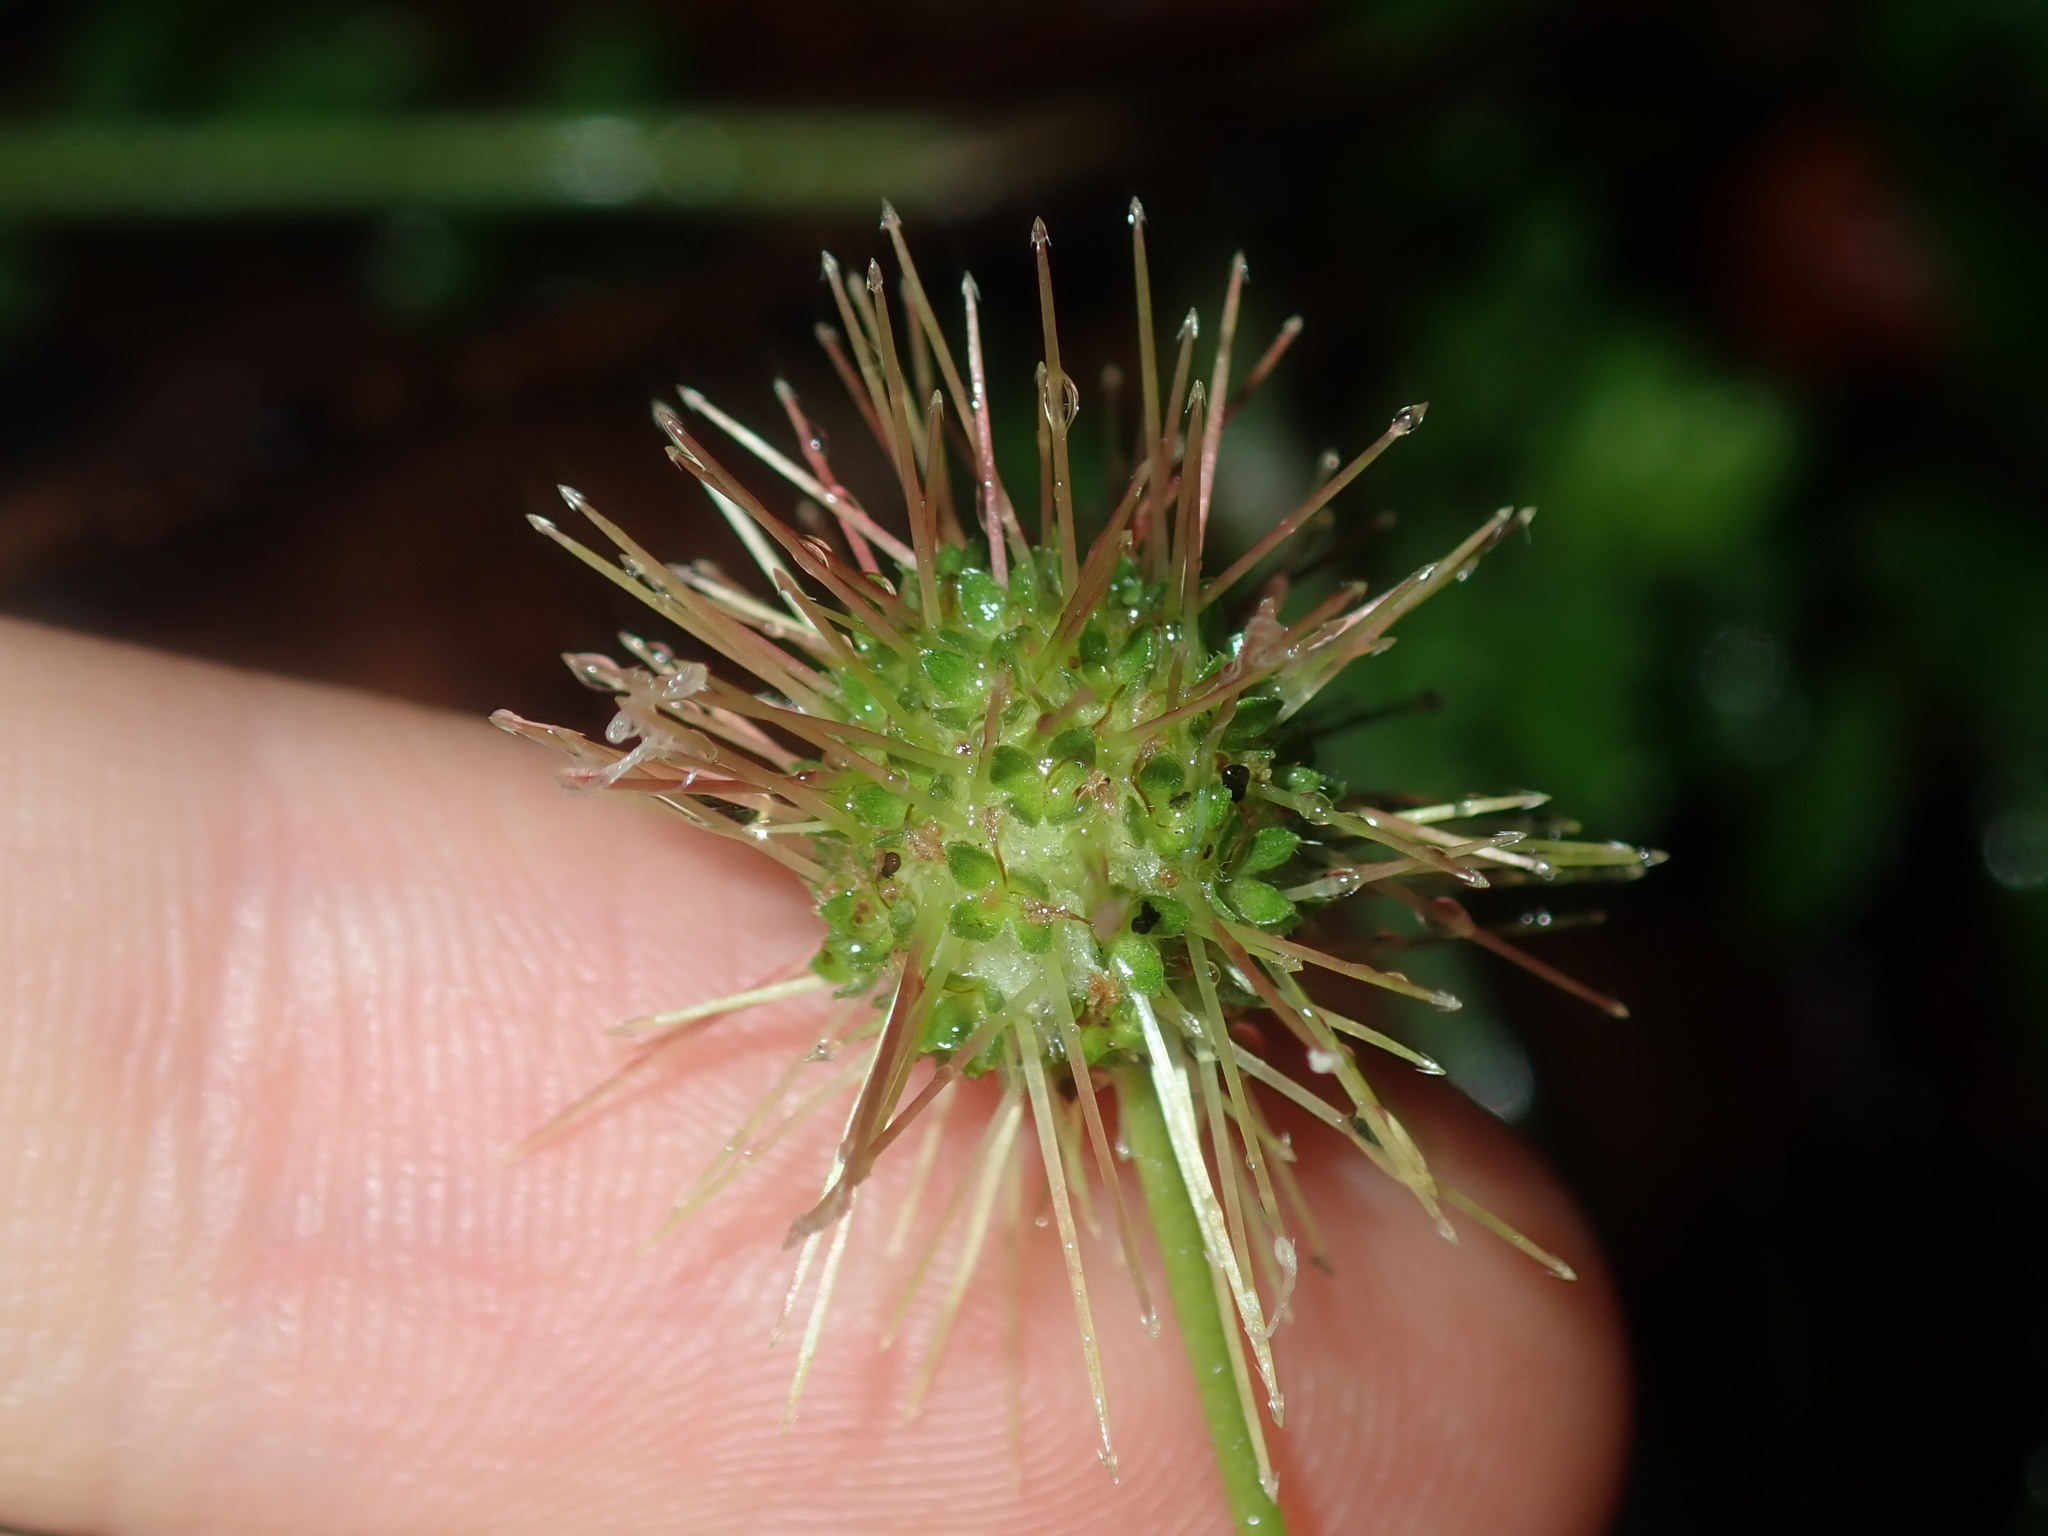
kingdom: Plantae
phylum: Tracheophyta
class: Magnoliopsida
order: Rosales
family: Rosaceae
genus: Acaena
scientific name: Acaena novae-zelandiae
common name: Pirri-pirri-bur
